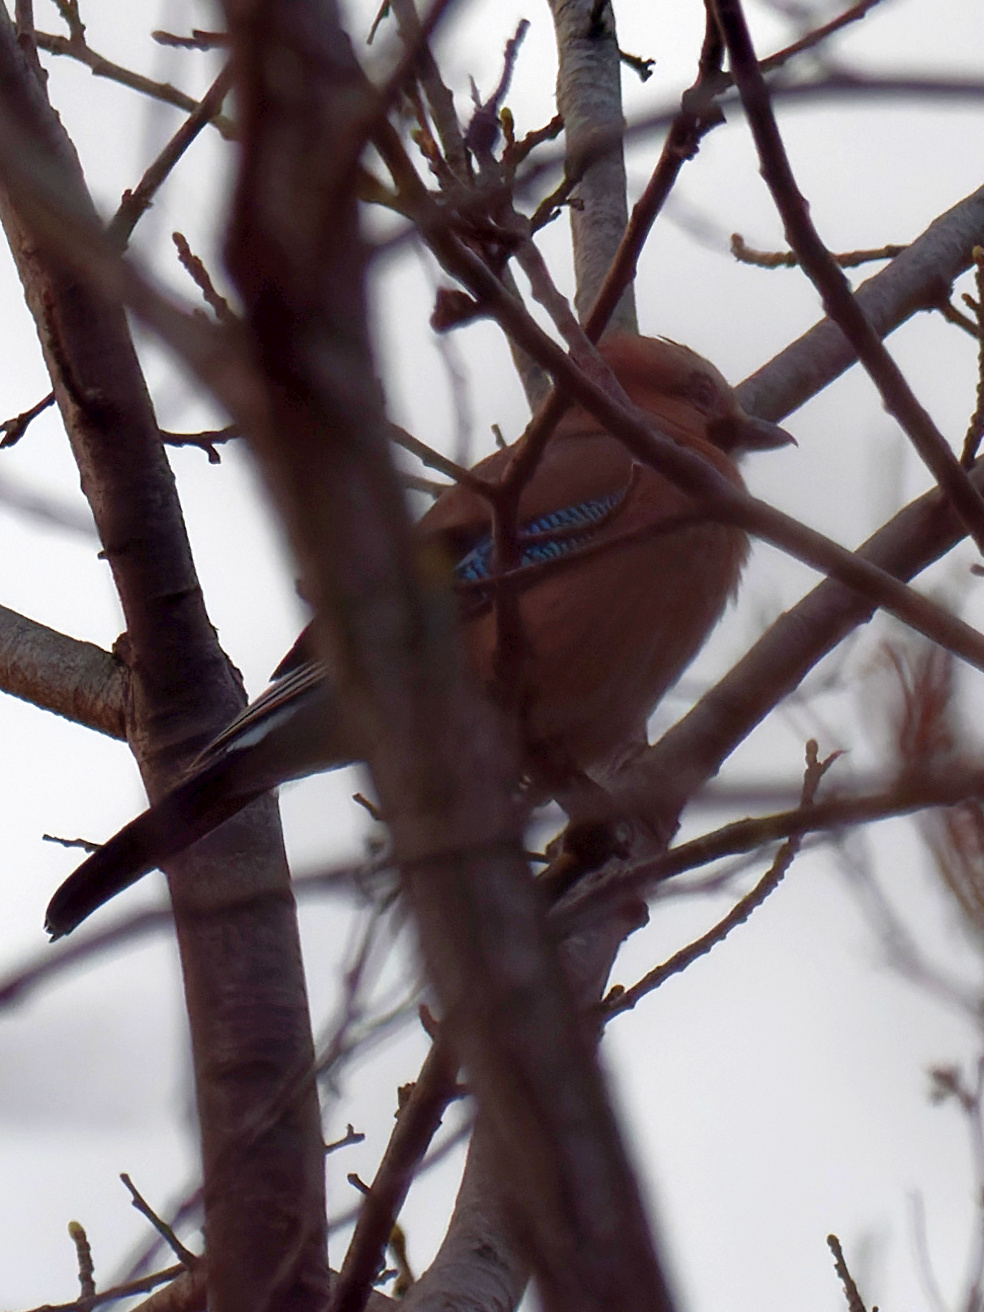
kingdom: Animalia
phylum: Chordata
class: Aves
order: Passeriformes
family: Corvidae
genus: Garrulus
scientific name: Garrulus glandarius
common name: Eurasian jay
